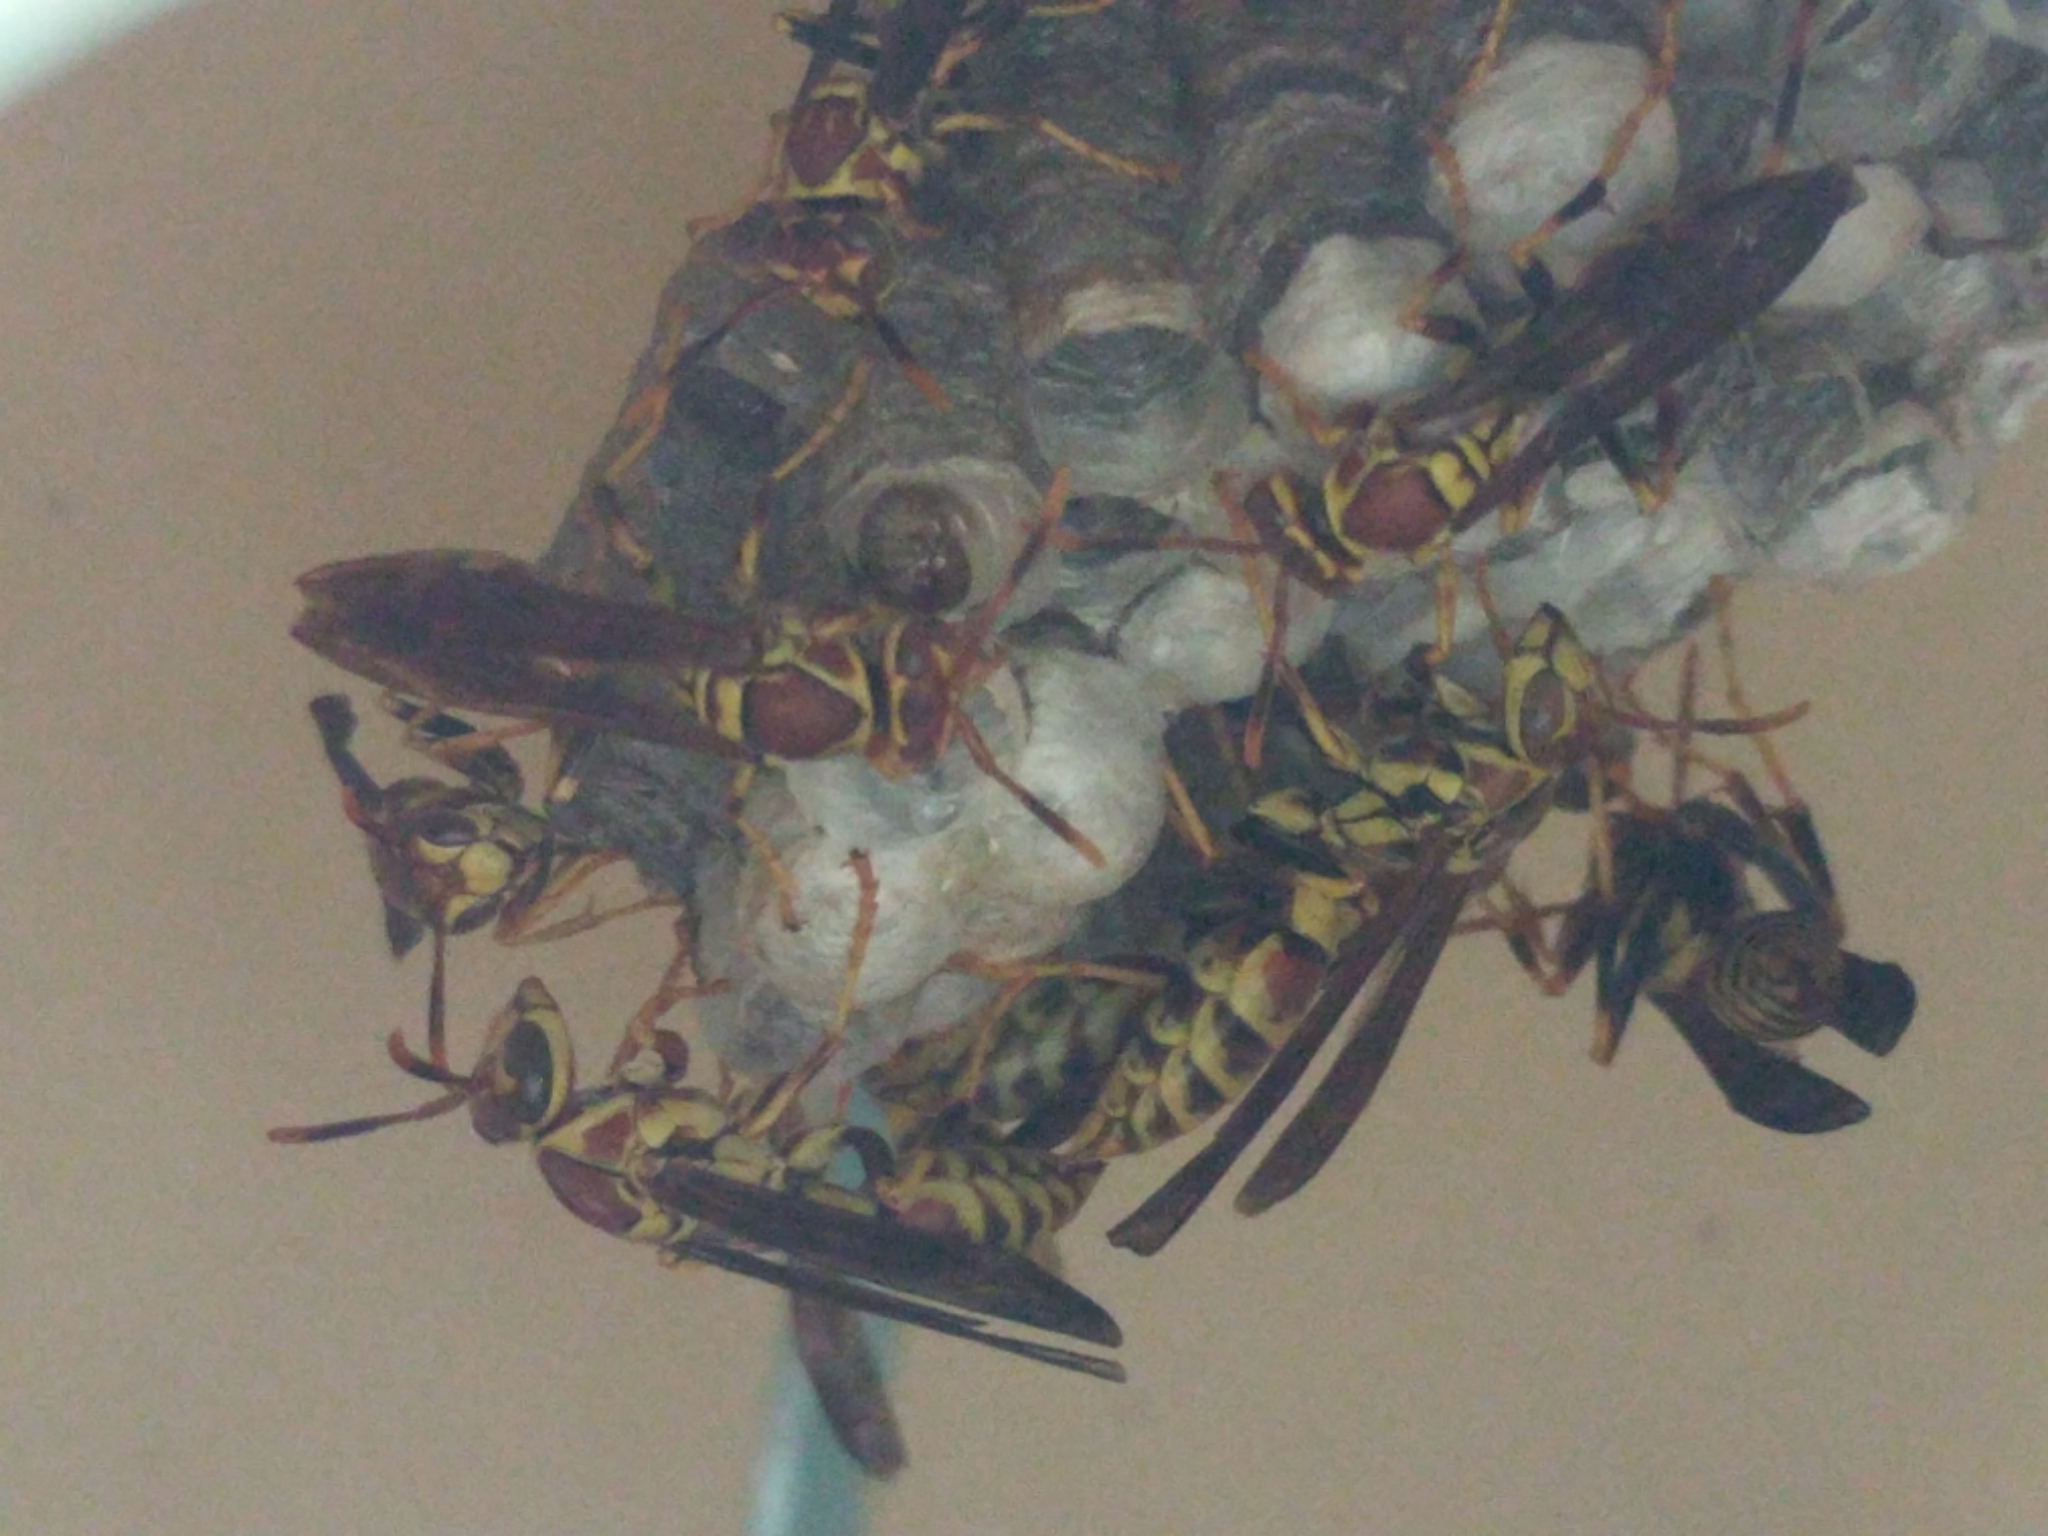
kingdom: Animalia
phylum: Arthropoda
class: Insecta
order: Hymenoptera
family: Eumenidae
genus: Polistes
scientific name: Polistes exclamans
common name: Paper wasp
